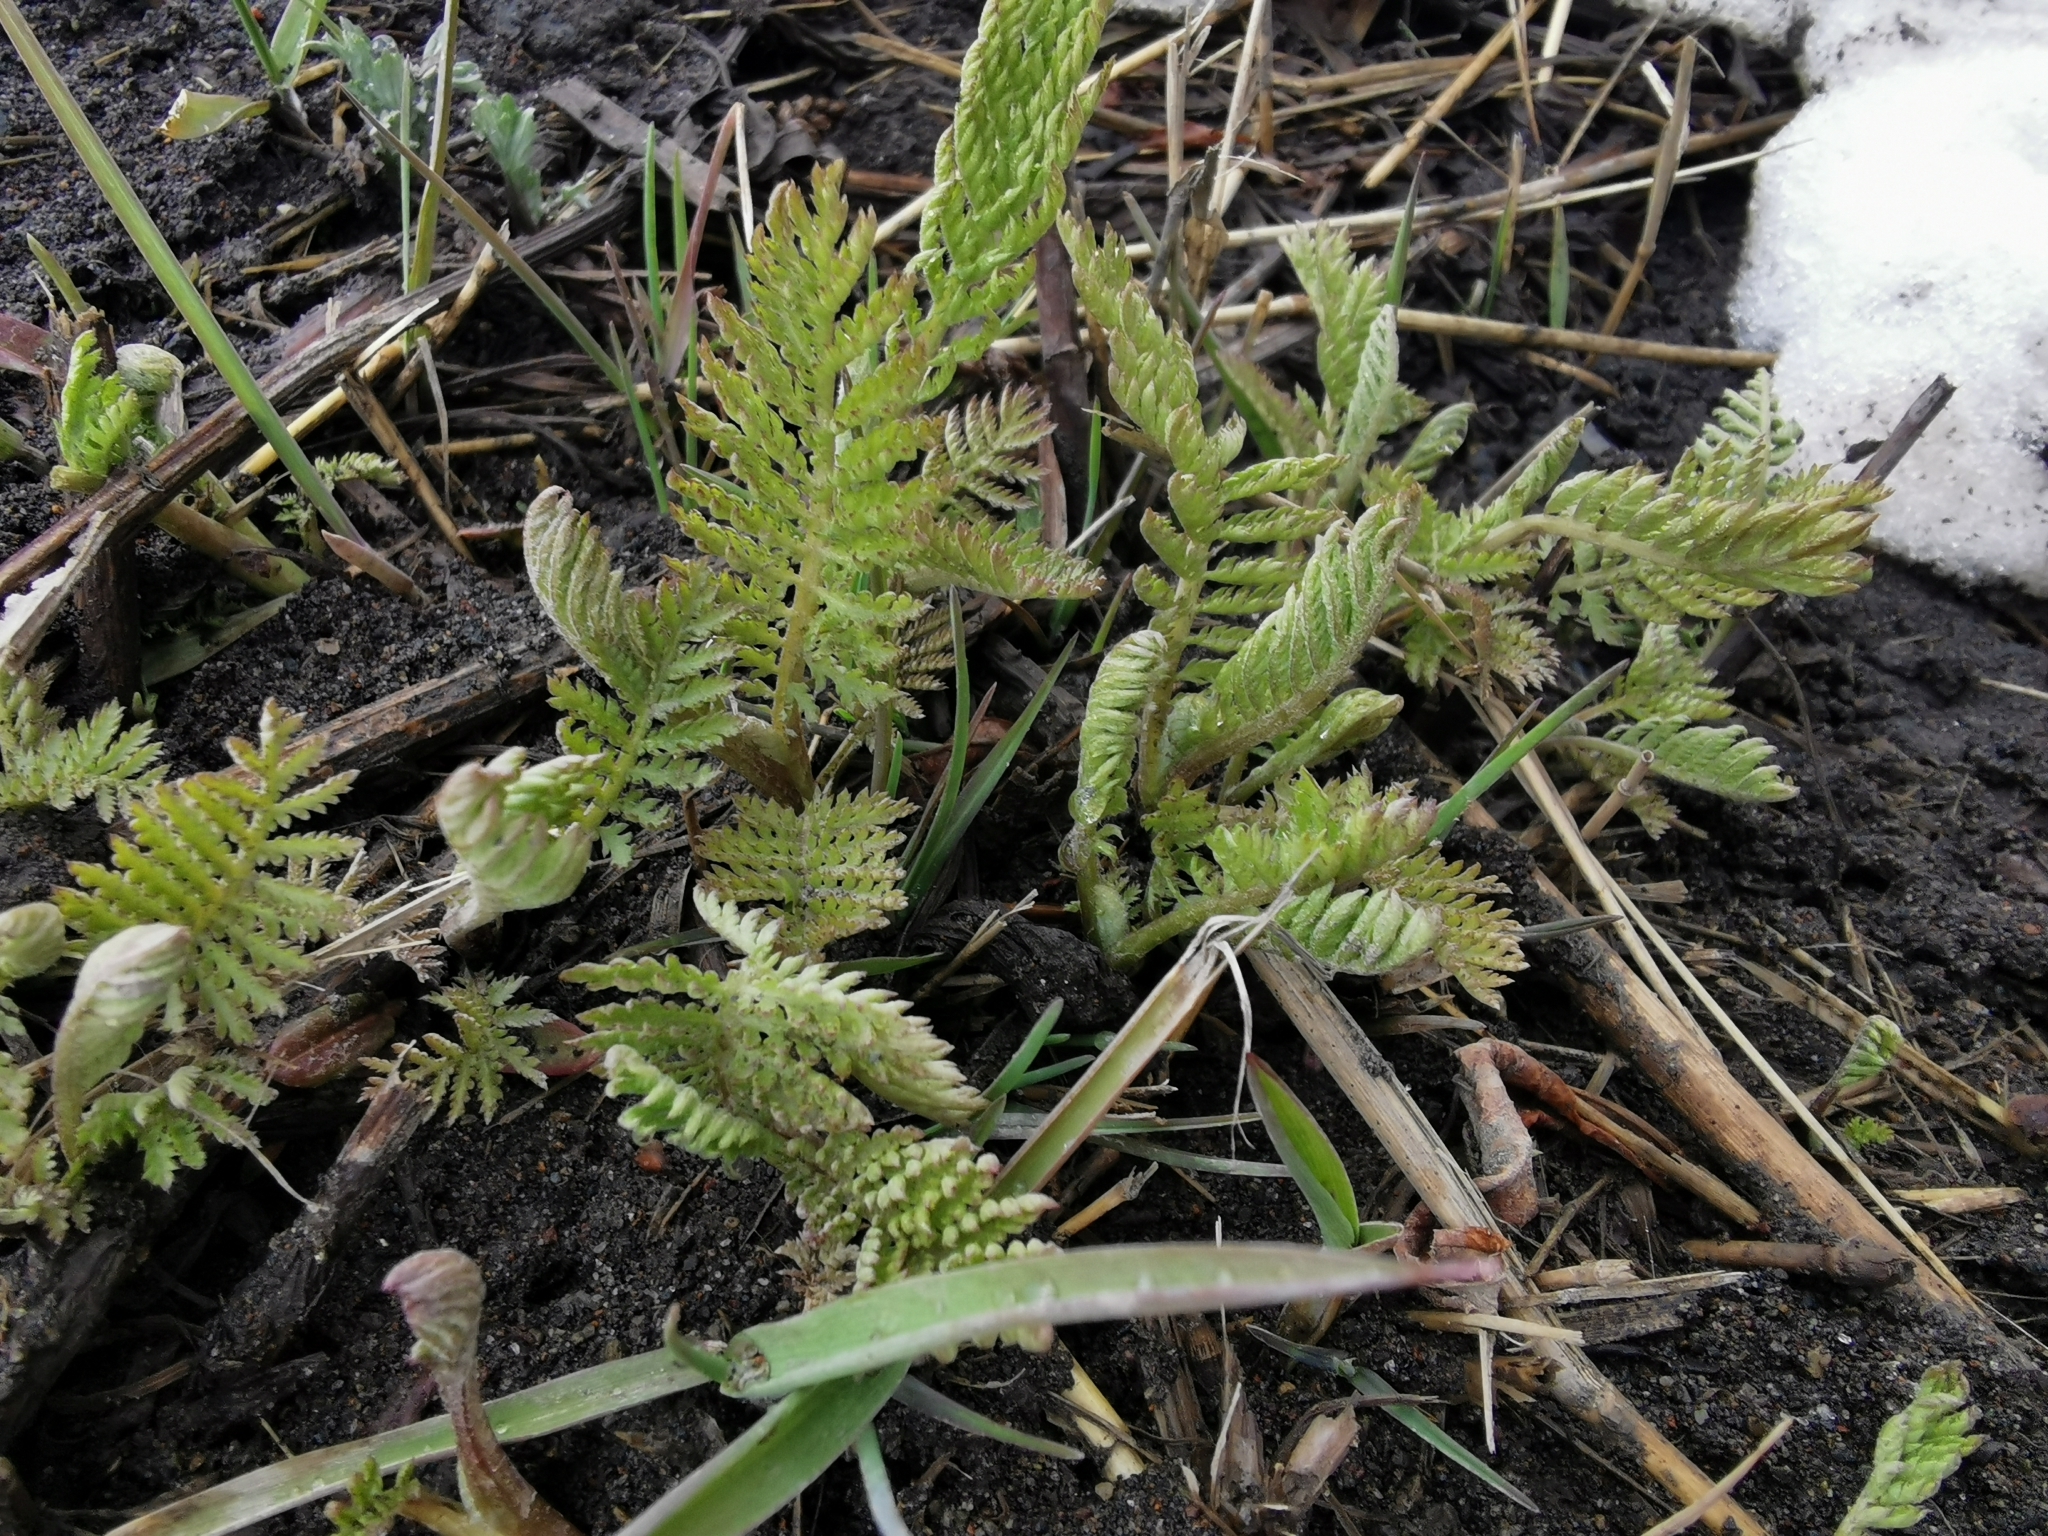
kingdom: Plantae
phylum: Tracheophyta
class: Magnoliopsida
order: Asterales
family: Asteraceae
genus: Tanacetum
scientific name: Tanacetum vulgare
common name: Common tansy
